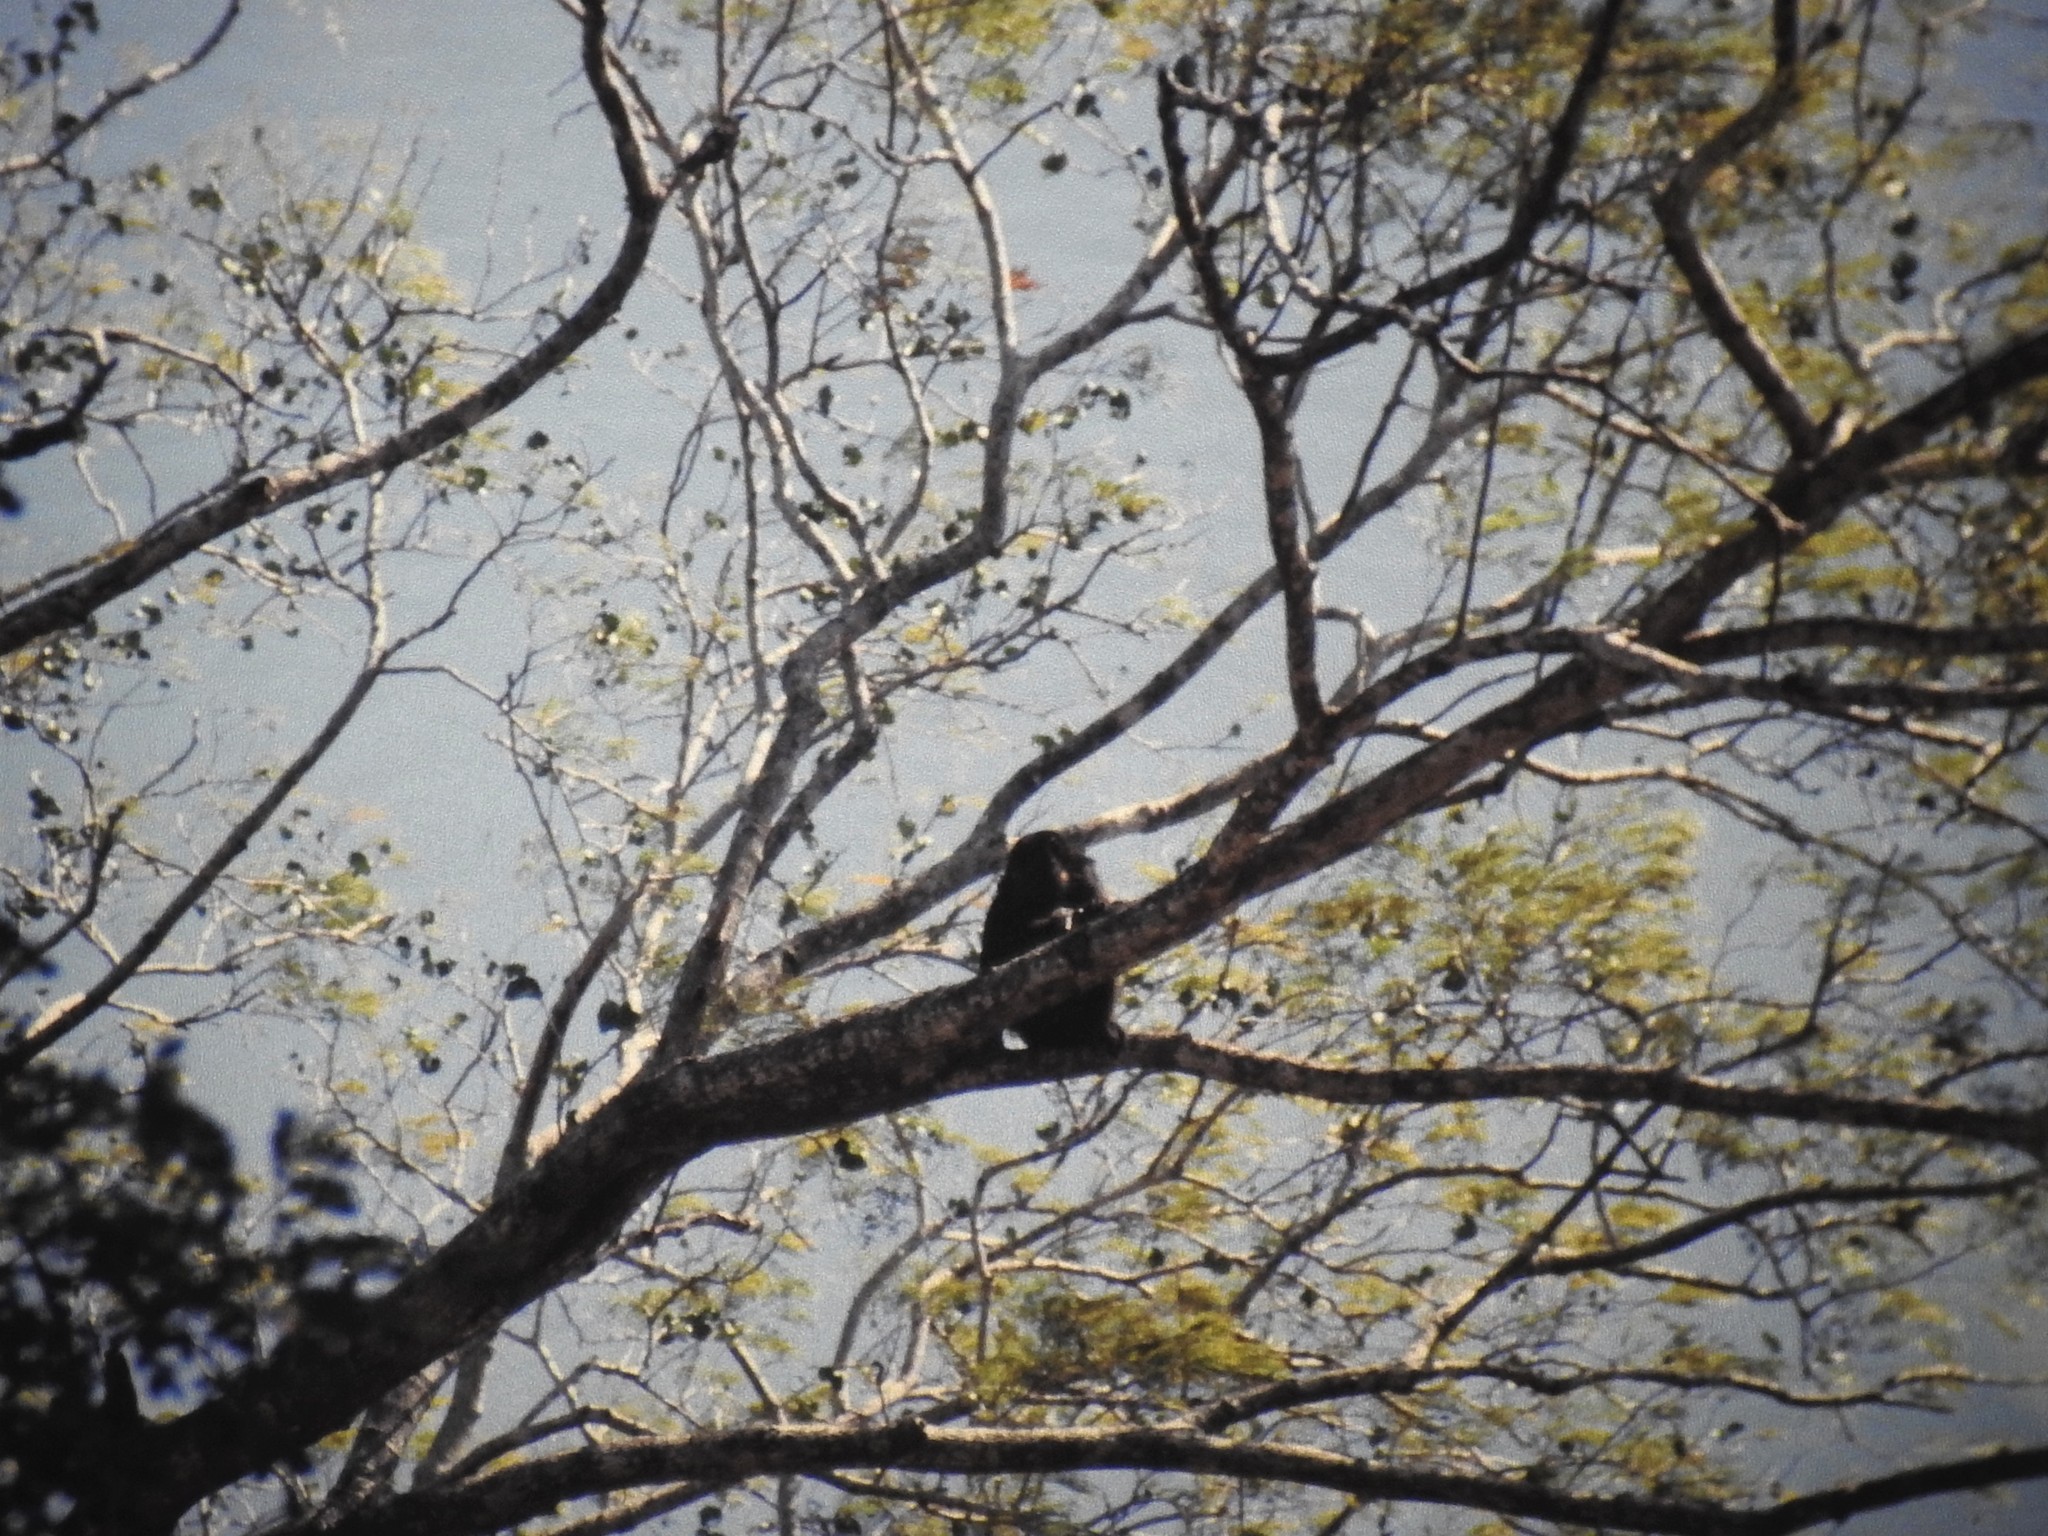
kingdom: Animalia
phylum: Chordata
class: Mammalia
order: Primates
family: Atelidae
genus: Alouatta
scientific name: Alouatta palliata
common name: Mantled howler
